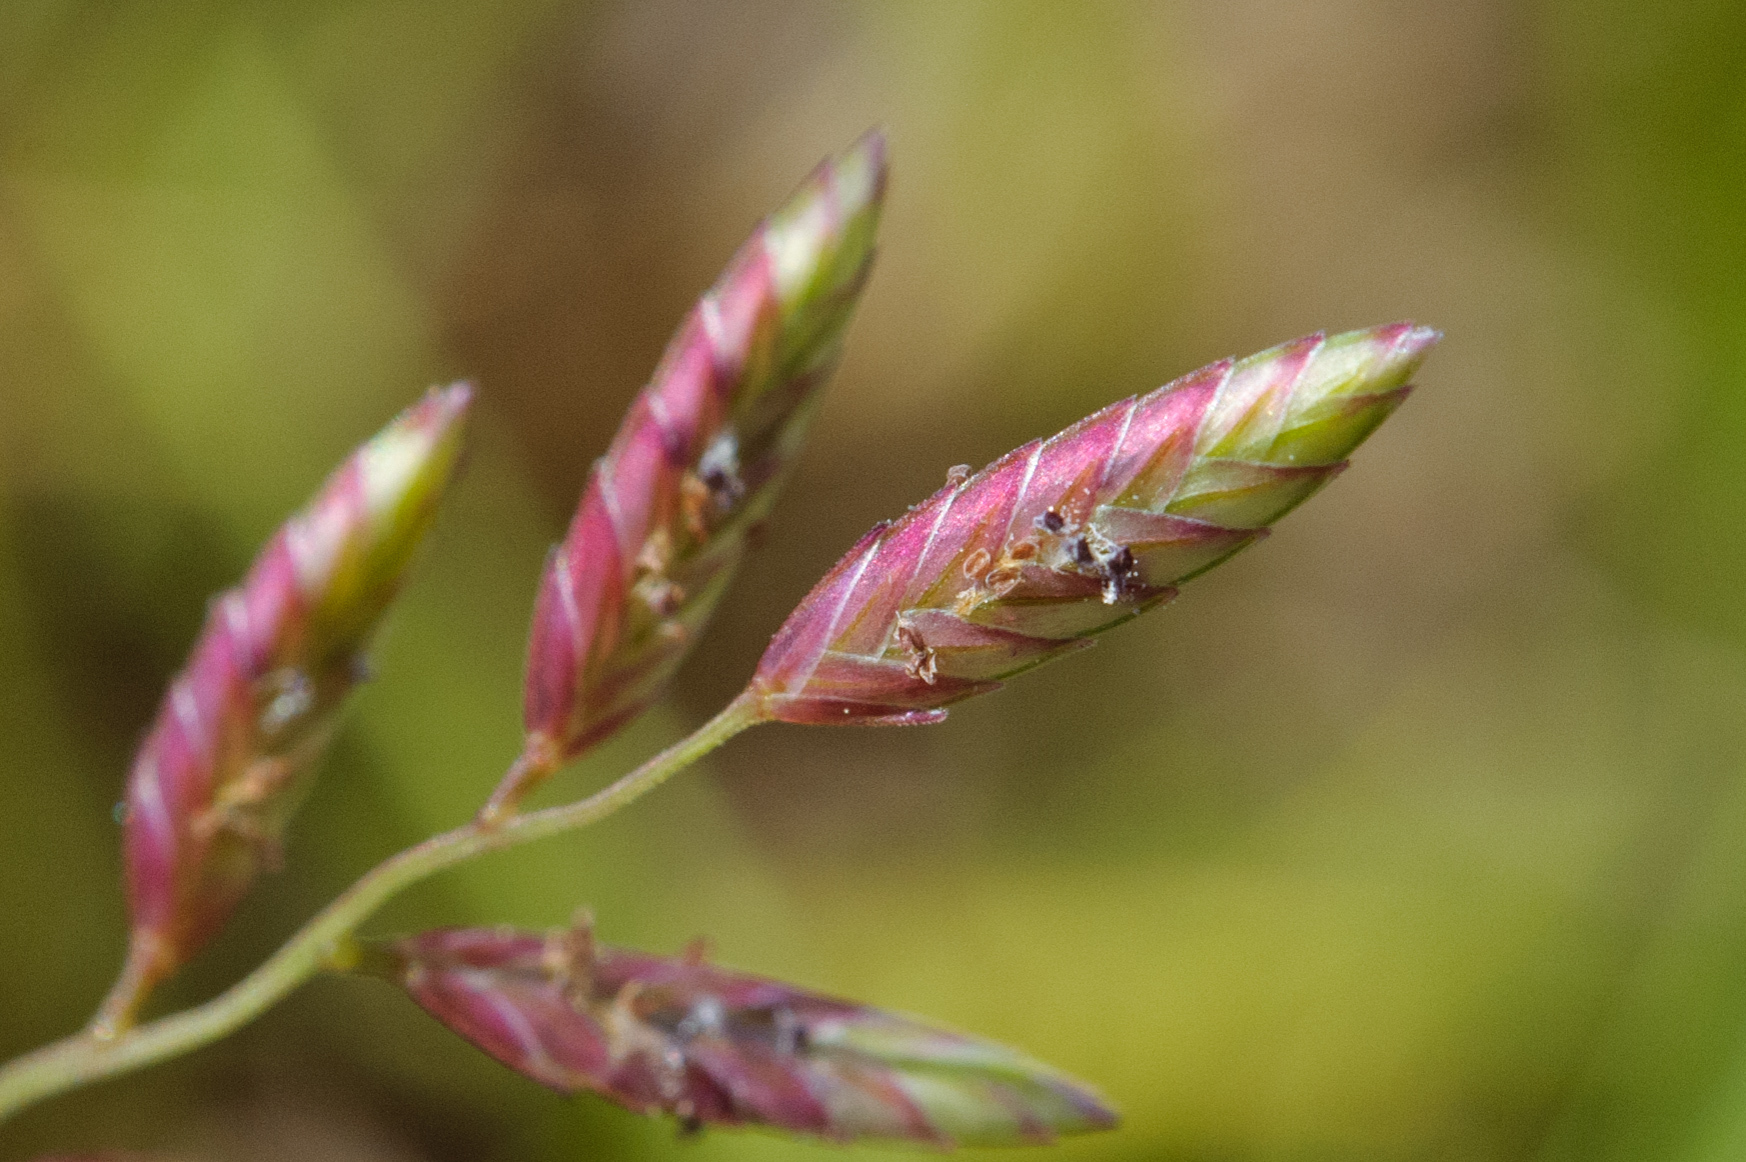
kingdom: Plantae
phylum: Tracheophyta
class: Liliopsida
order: Poales
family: Poaceae
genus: Eragrostis
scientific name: Eragrostis brownii
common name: Lovegrass
